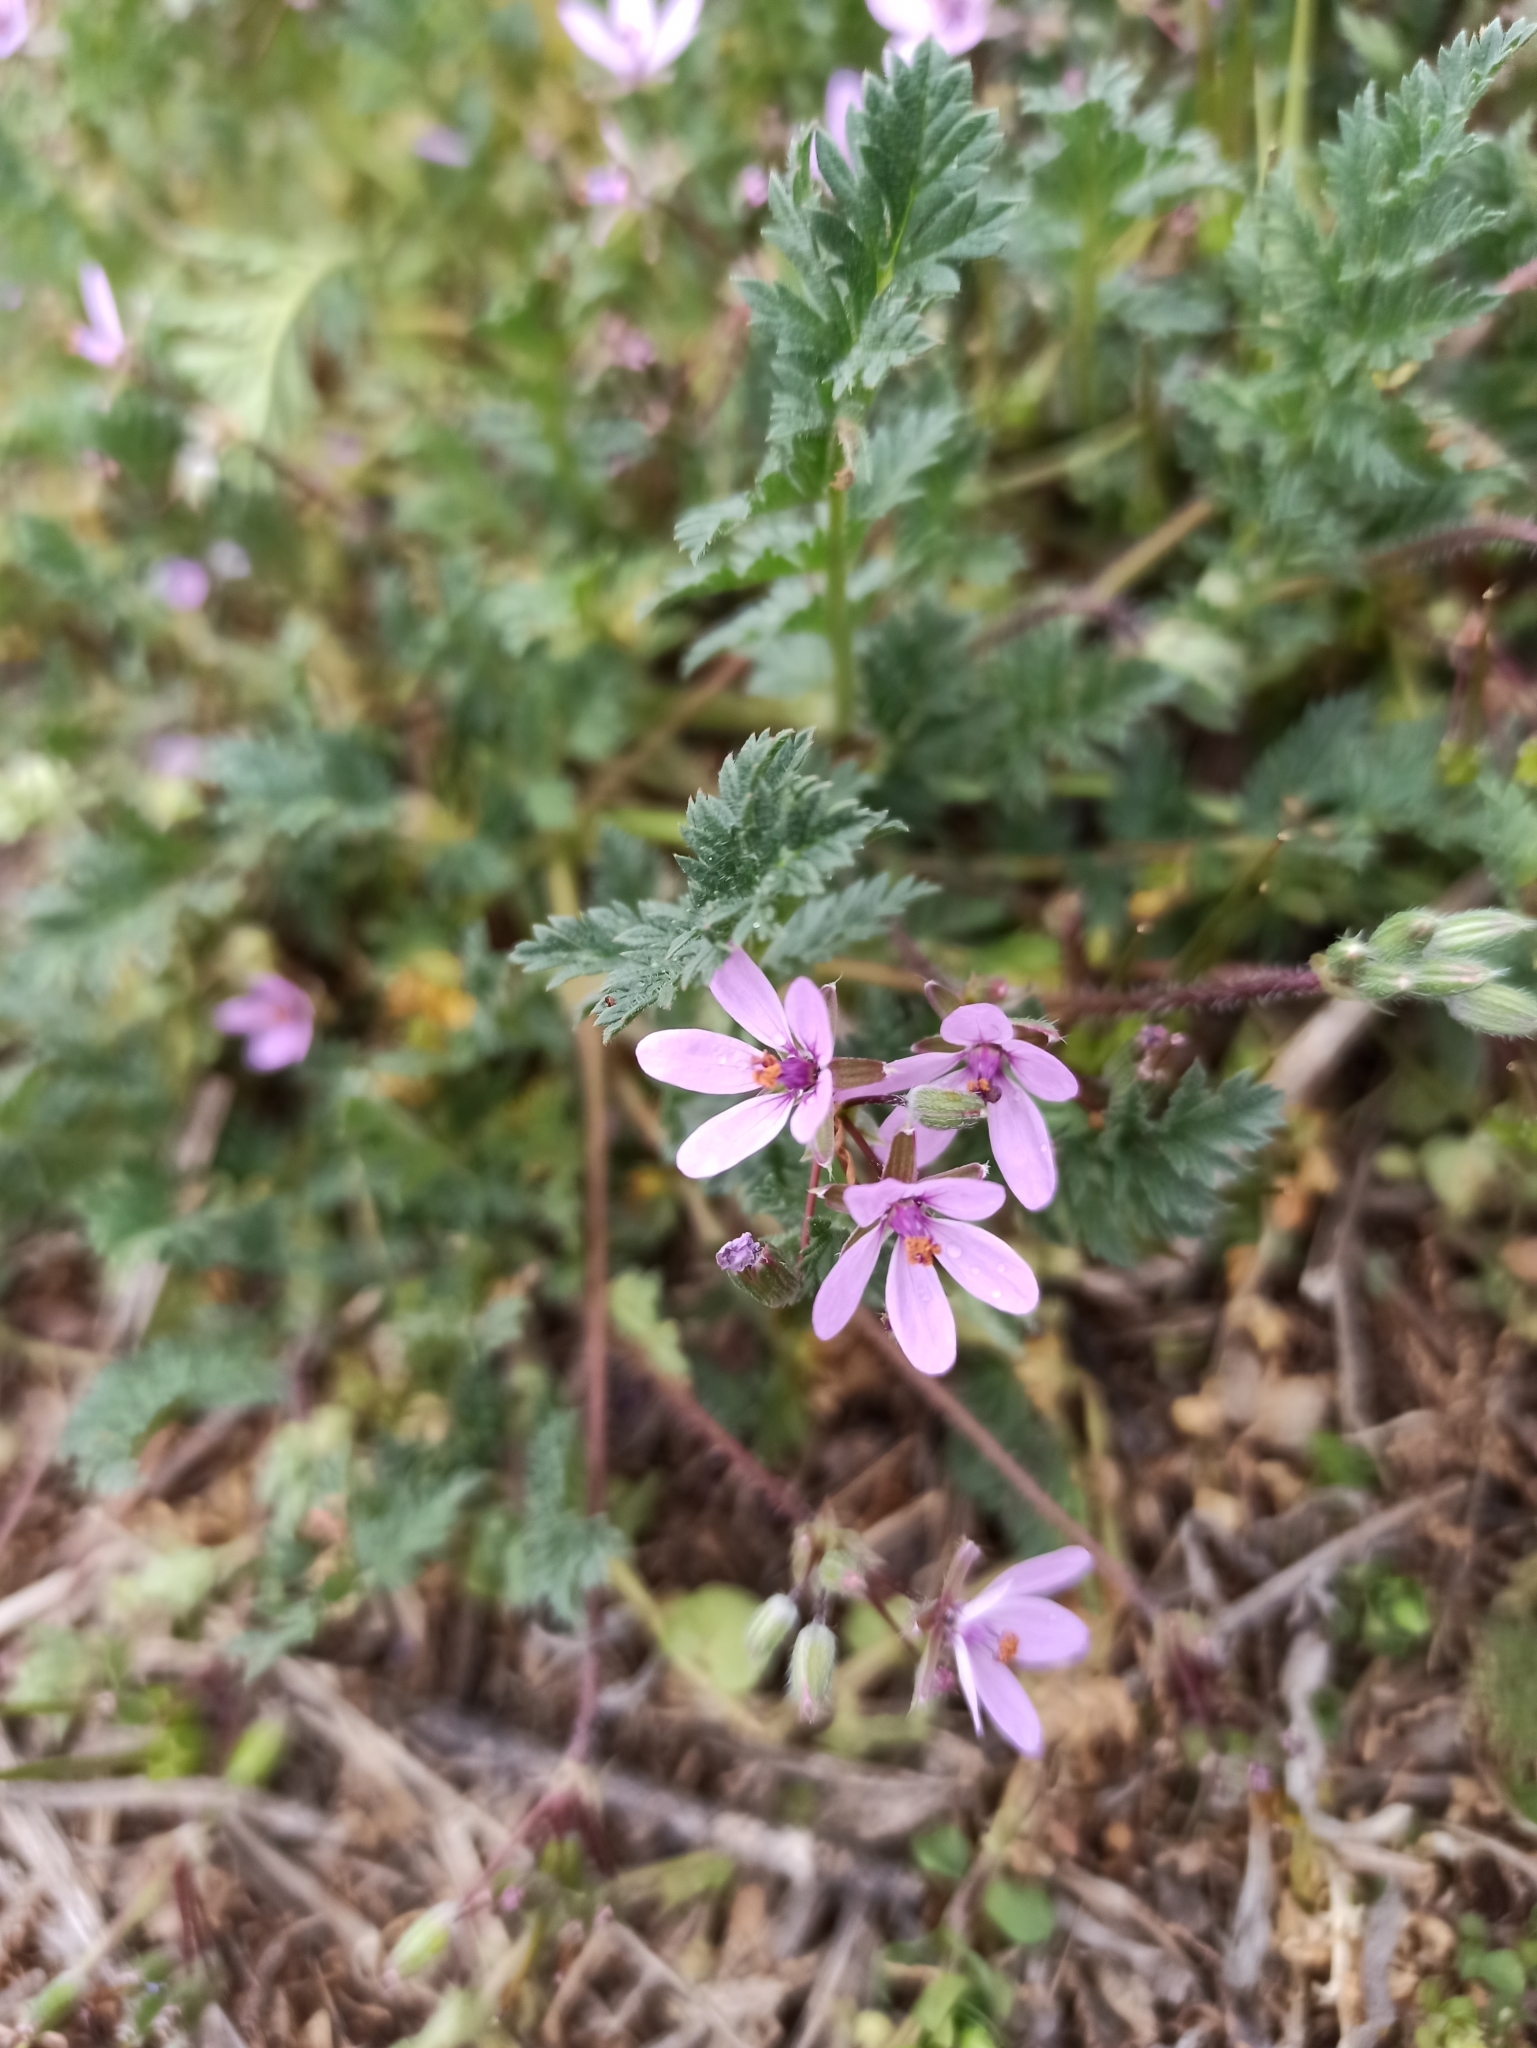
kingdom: Plantae
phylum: Tracheophyta
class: Magnoliopsida
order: Geraniales
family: Geraniaceae
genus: Erodium
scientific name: Erodium cicutarium
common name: Common stork's-bill
